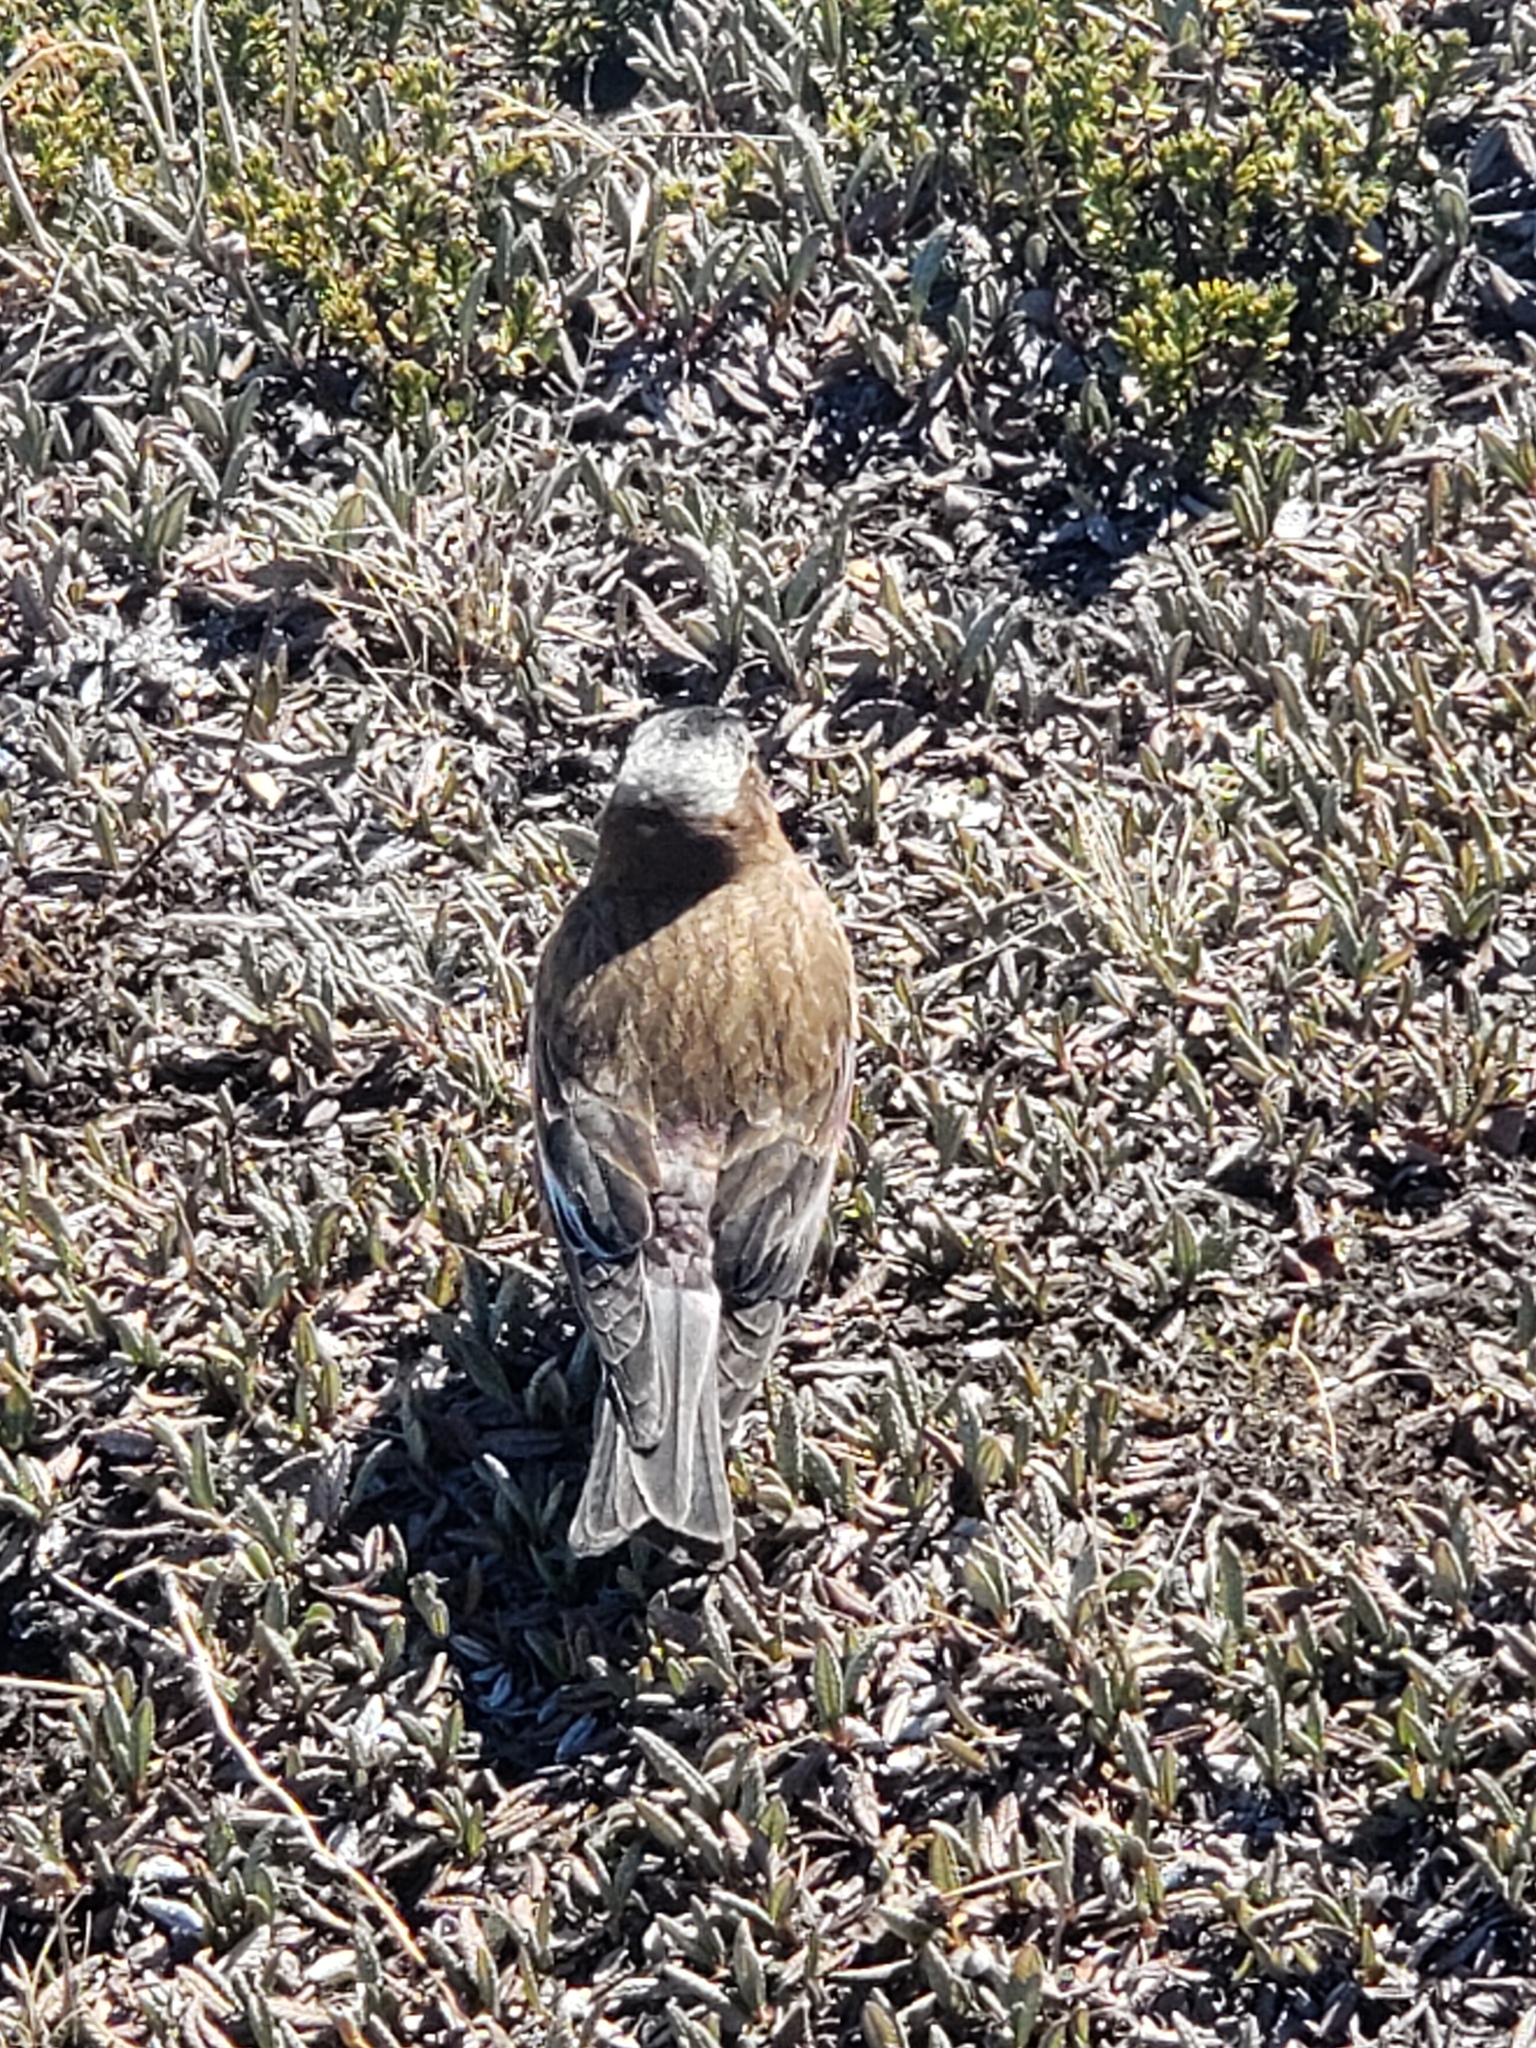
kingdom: Animalia
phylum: Chordata
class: Aves
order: Passeriformes
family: Fringillidae
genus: Leucosticte
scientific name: Leucosticte tephrocotis
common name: Gray-crowned rosy-finch
